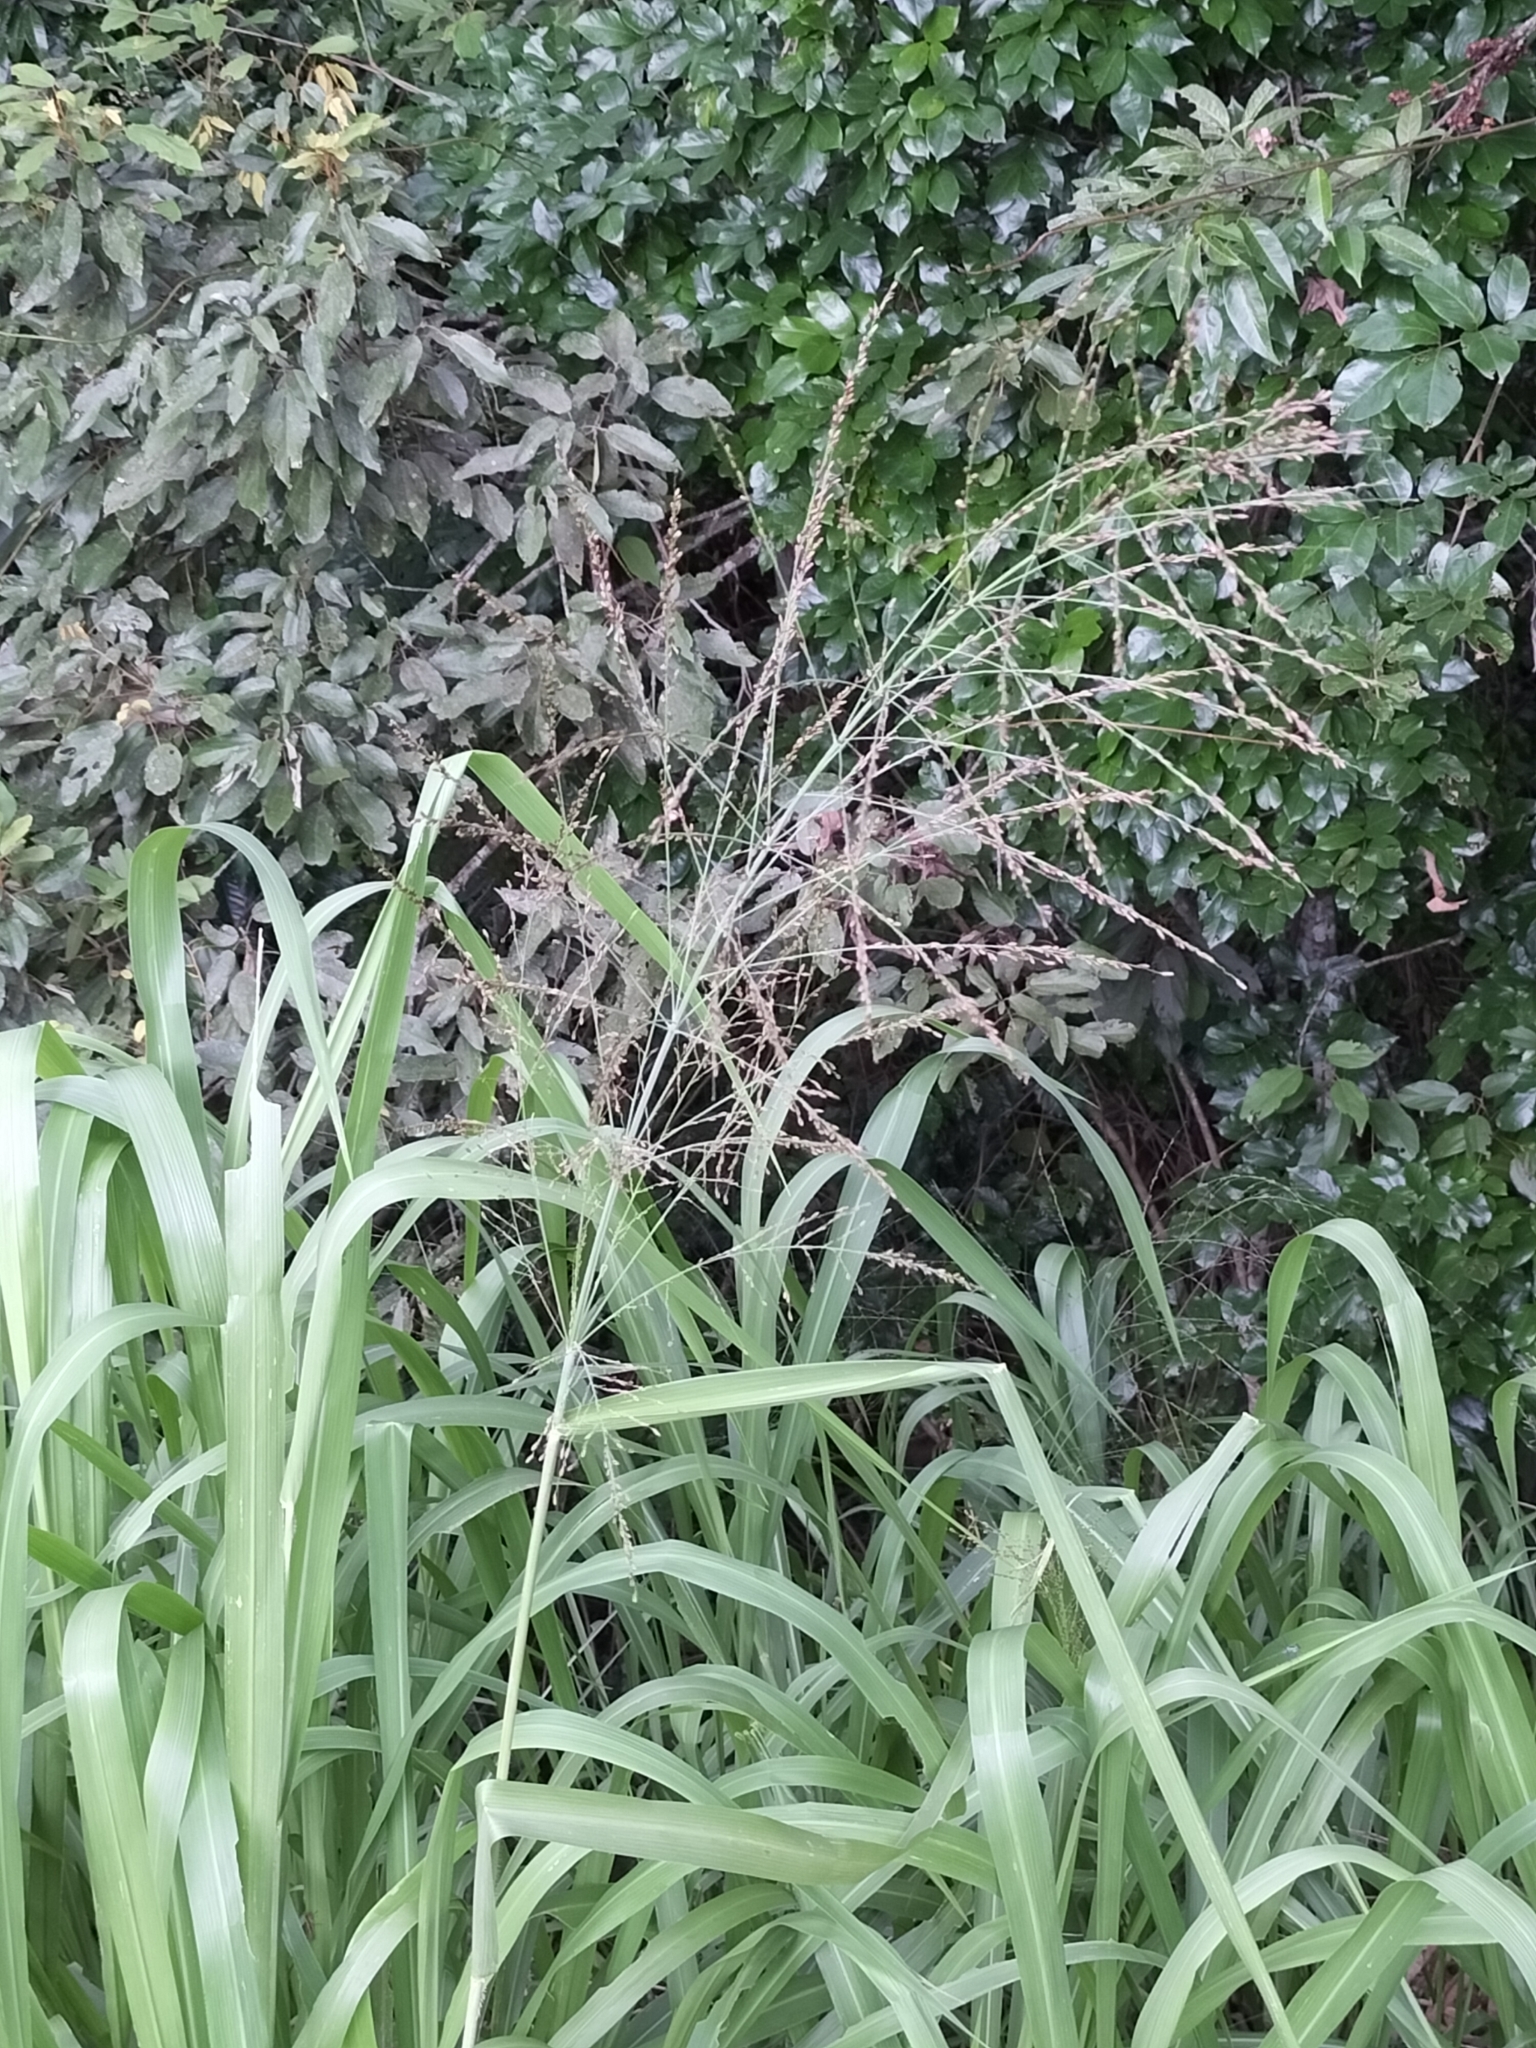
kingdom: Plantae
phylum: Tracheophyta
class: Liliopsida
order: Poales
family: Poaceae
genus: Megathyrsus
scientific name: Megathyrsus maximus
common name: Guineagrass
